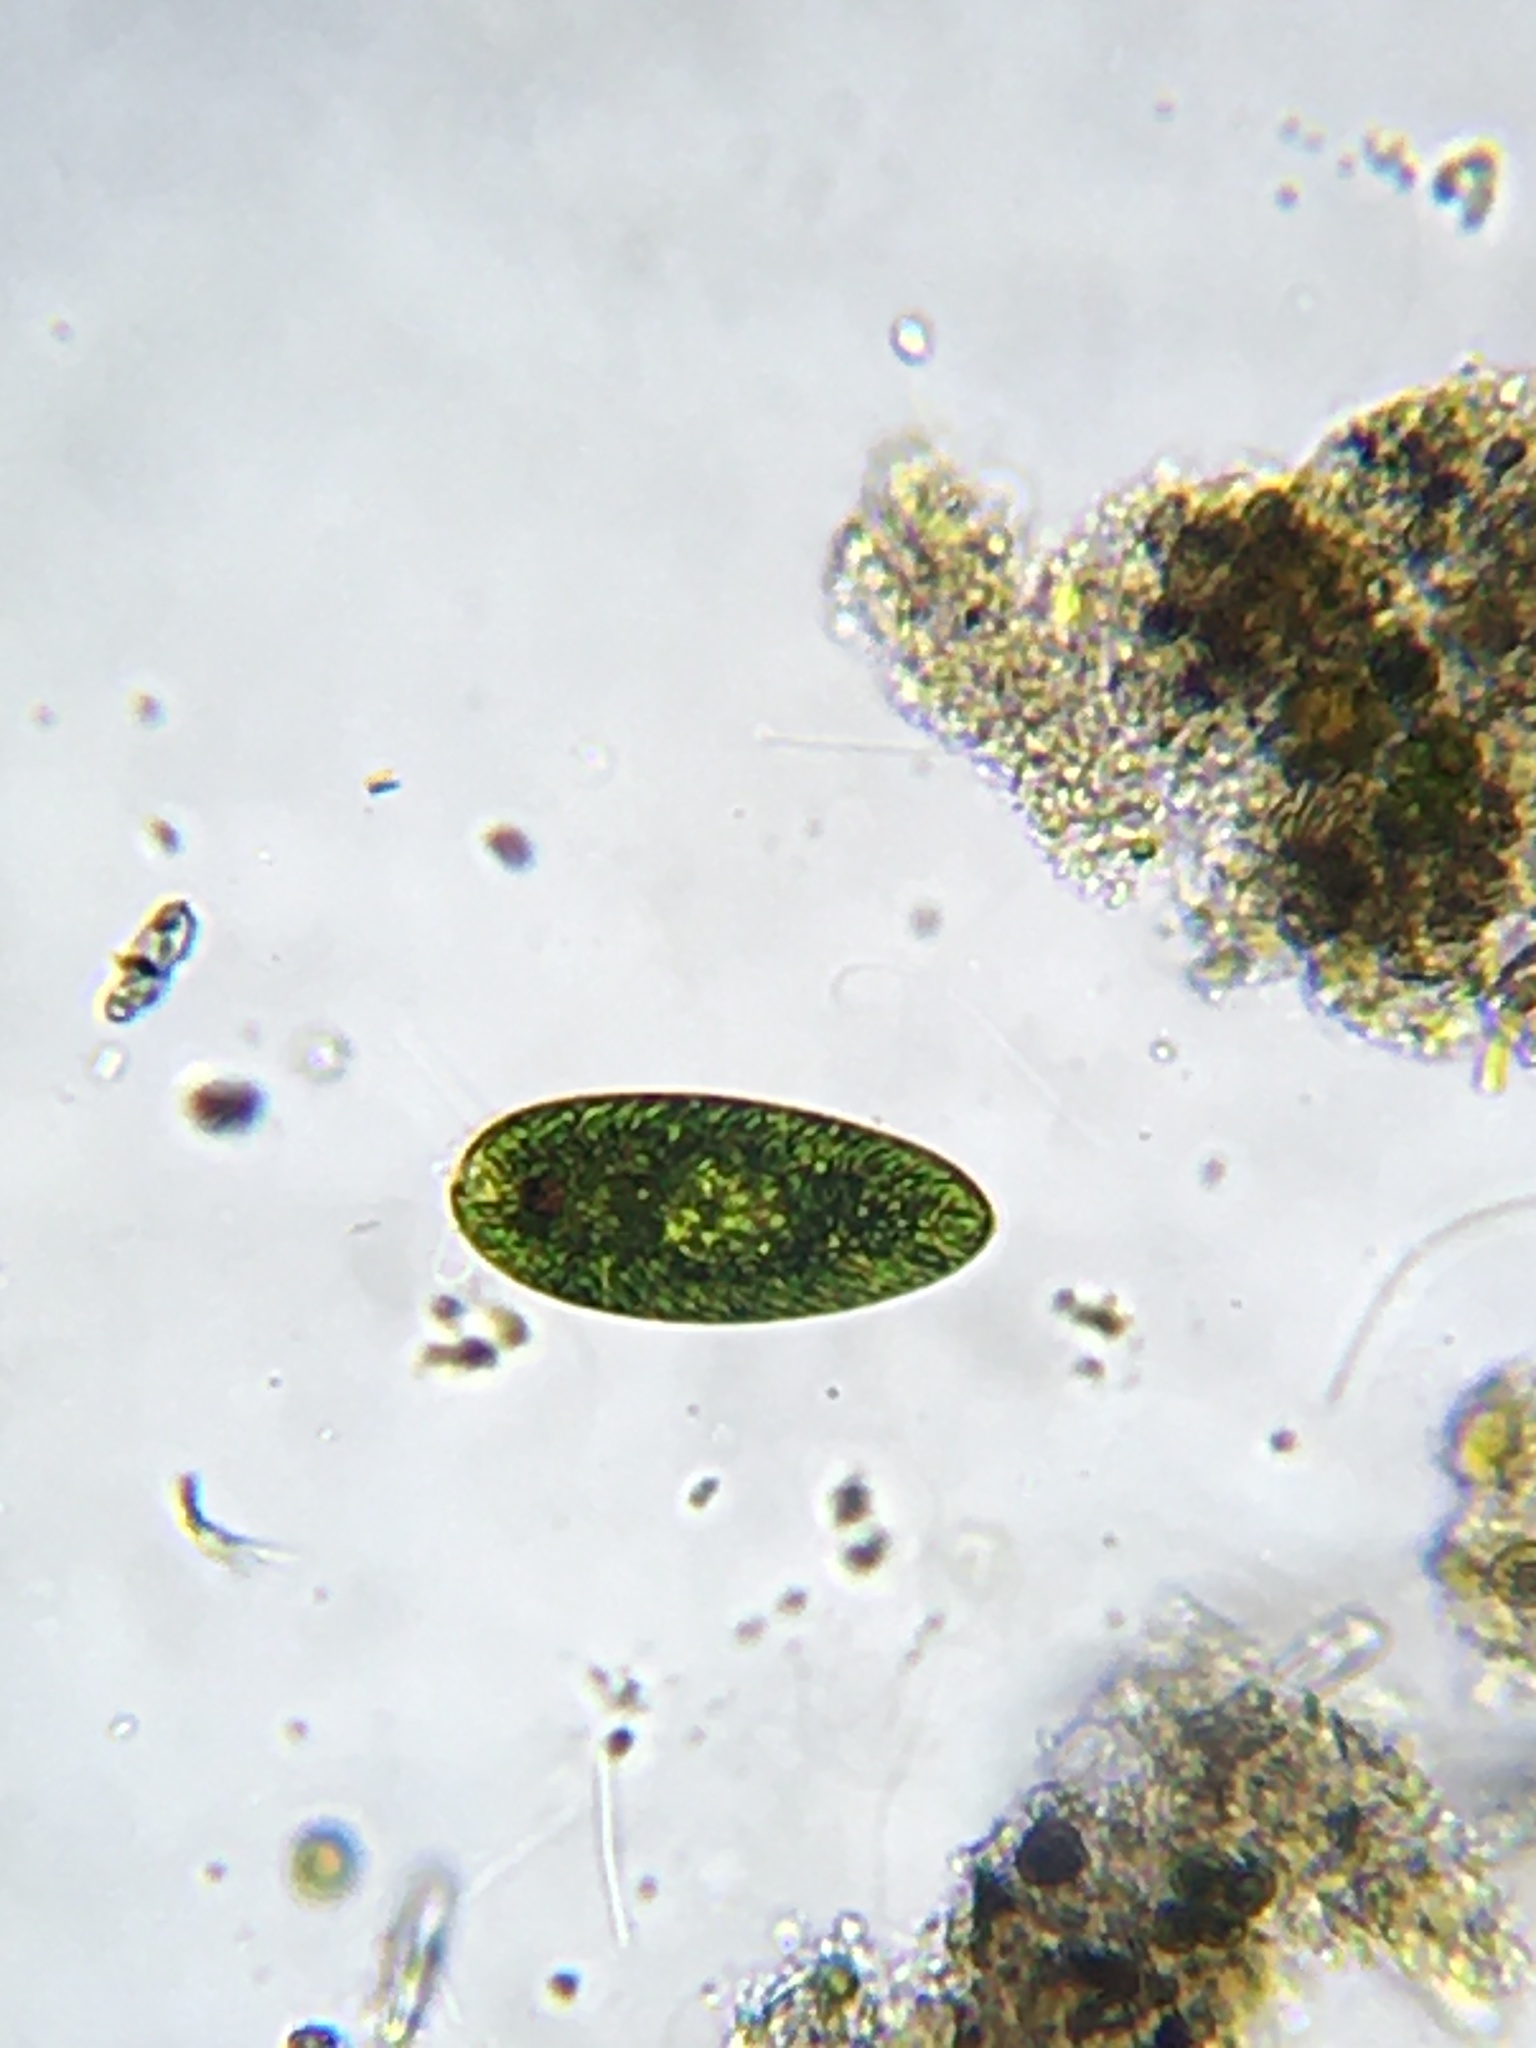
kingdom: Protozoa
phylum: Euglenozoa
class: Euglenoidea
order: Euglenida
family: Euglenaceae
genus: Euglena
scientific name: Euglena oblonga
